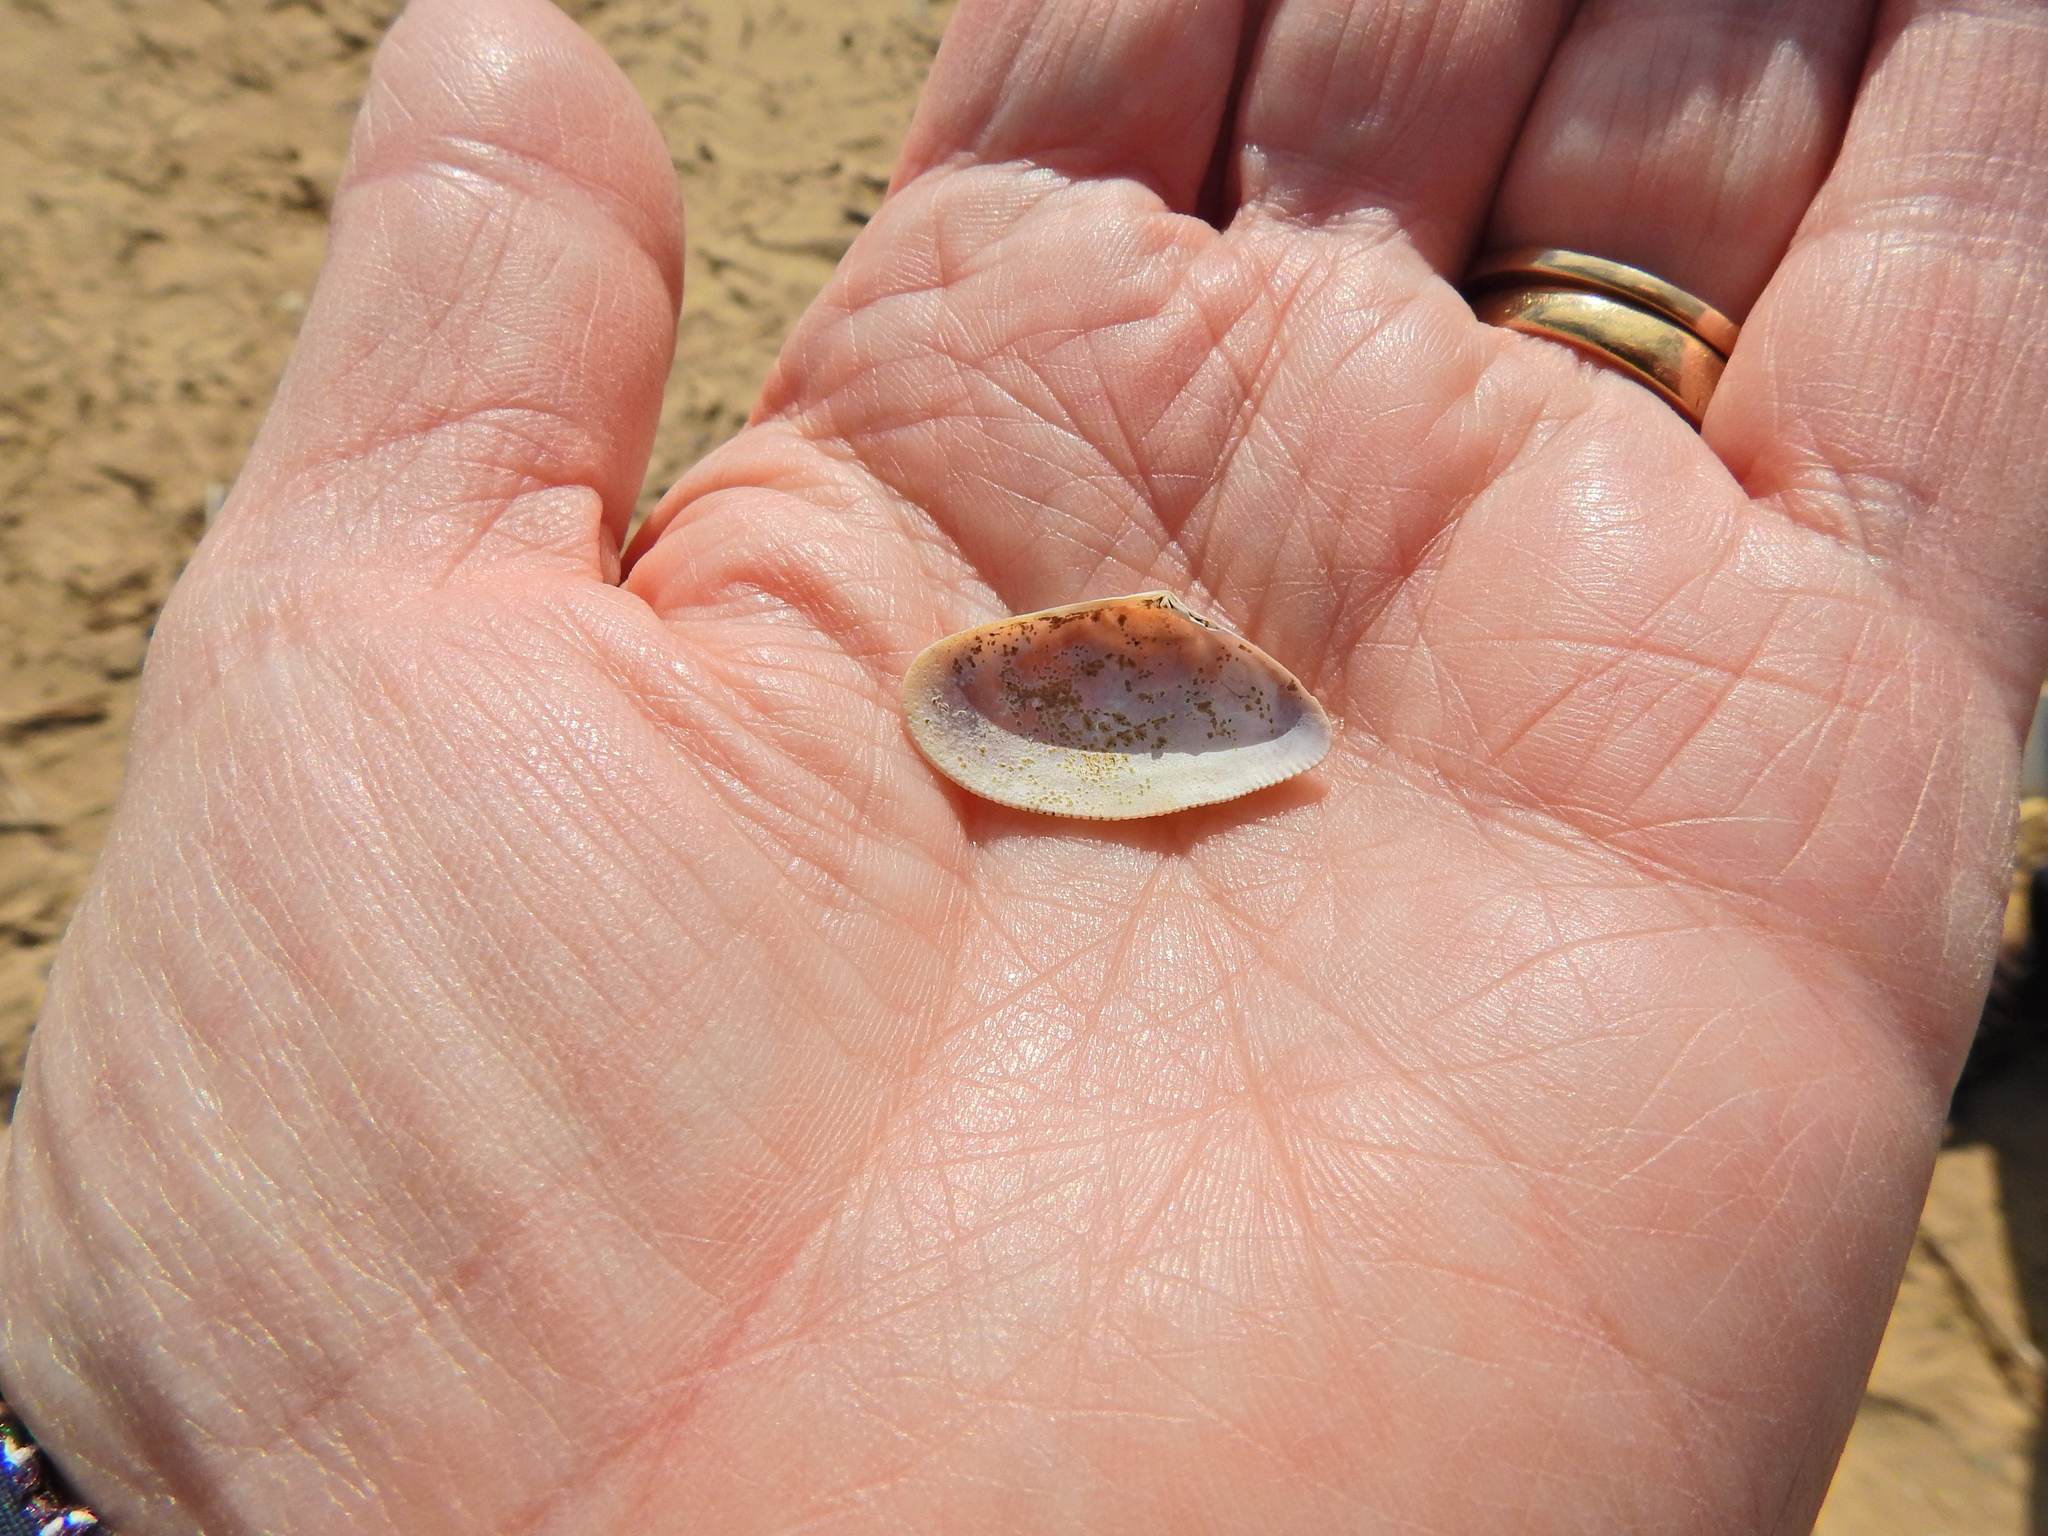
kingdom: Animalia
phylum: Mollusca
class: Bivalvia
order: Cardiida
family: Donacidae
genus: Donax
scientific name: Donax vittatus
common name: Banded wedge-shell
